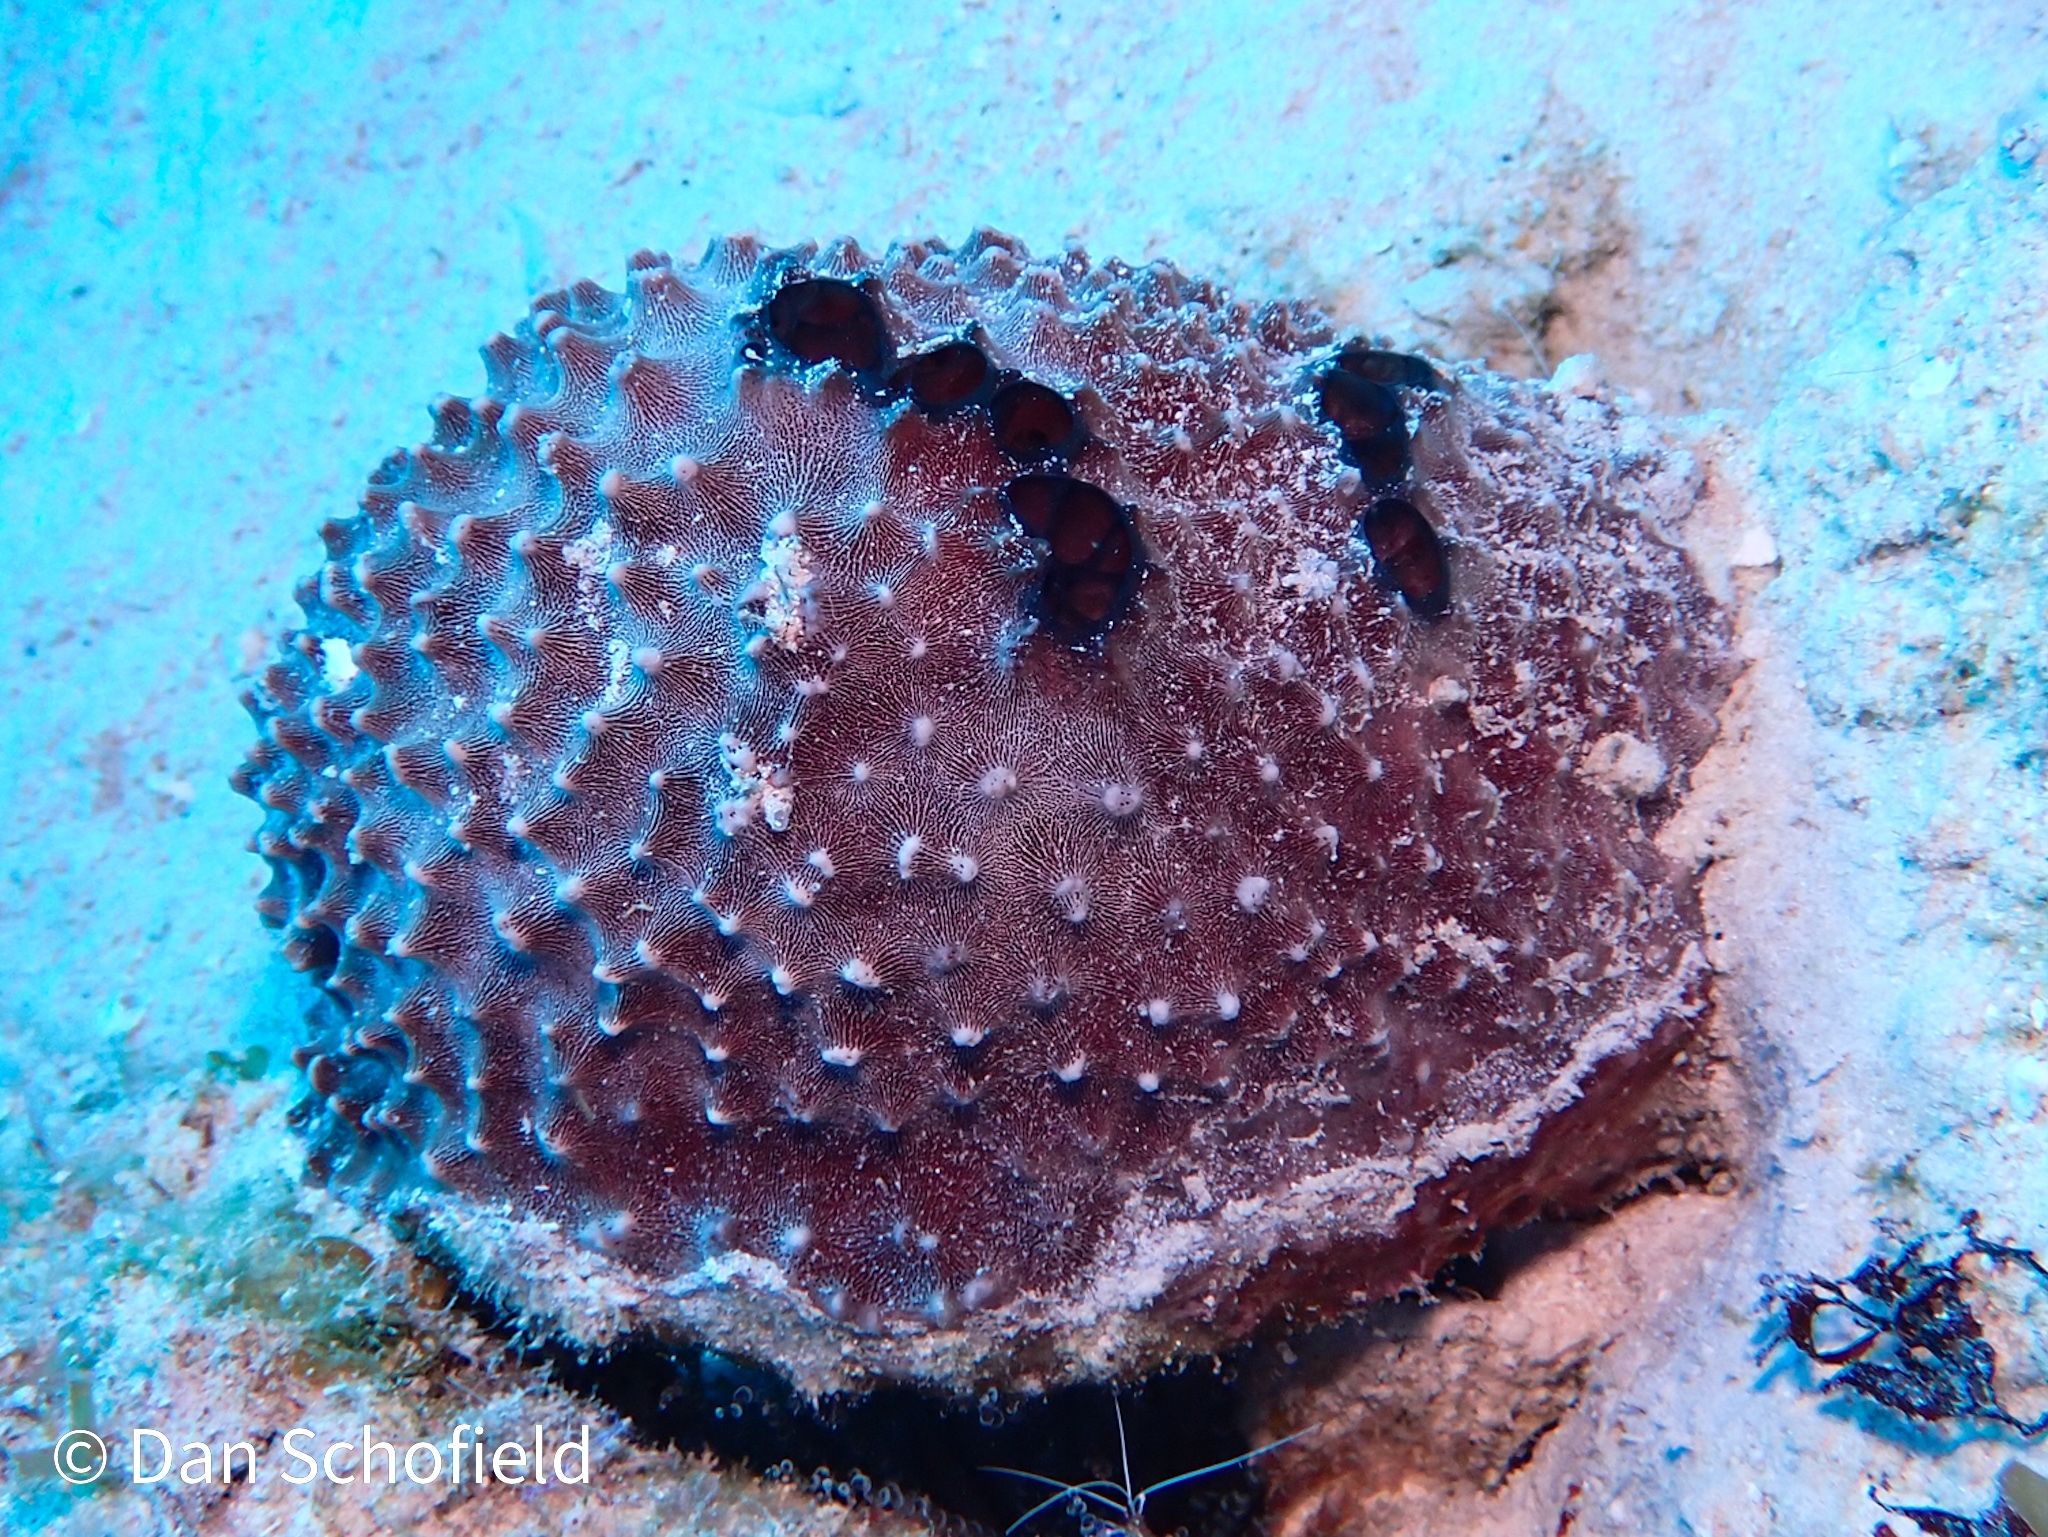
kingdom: Animalia
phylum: Porifera
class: Demospongiae
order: Dictyoceratida
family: Irciniidae
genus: Ircinia
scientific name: Ircinia felix
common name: Stinker sponge
